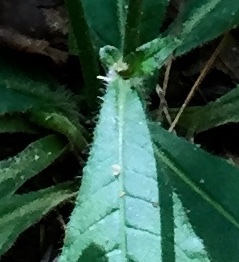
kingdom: Plantae
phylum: Tracheophyta
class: Magnoliopsida
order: Asterales
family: Asteraceae
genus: Elephantopus
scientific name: Elephantopus tomentosus
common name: Tobacco-weed
